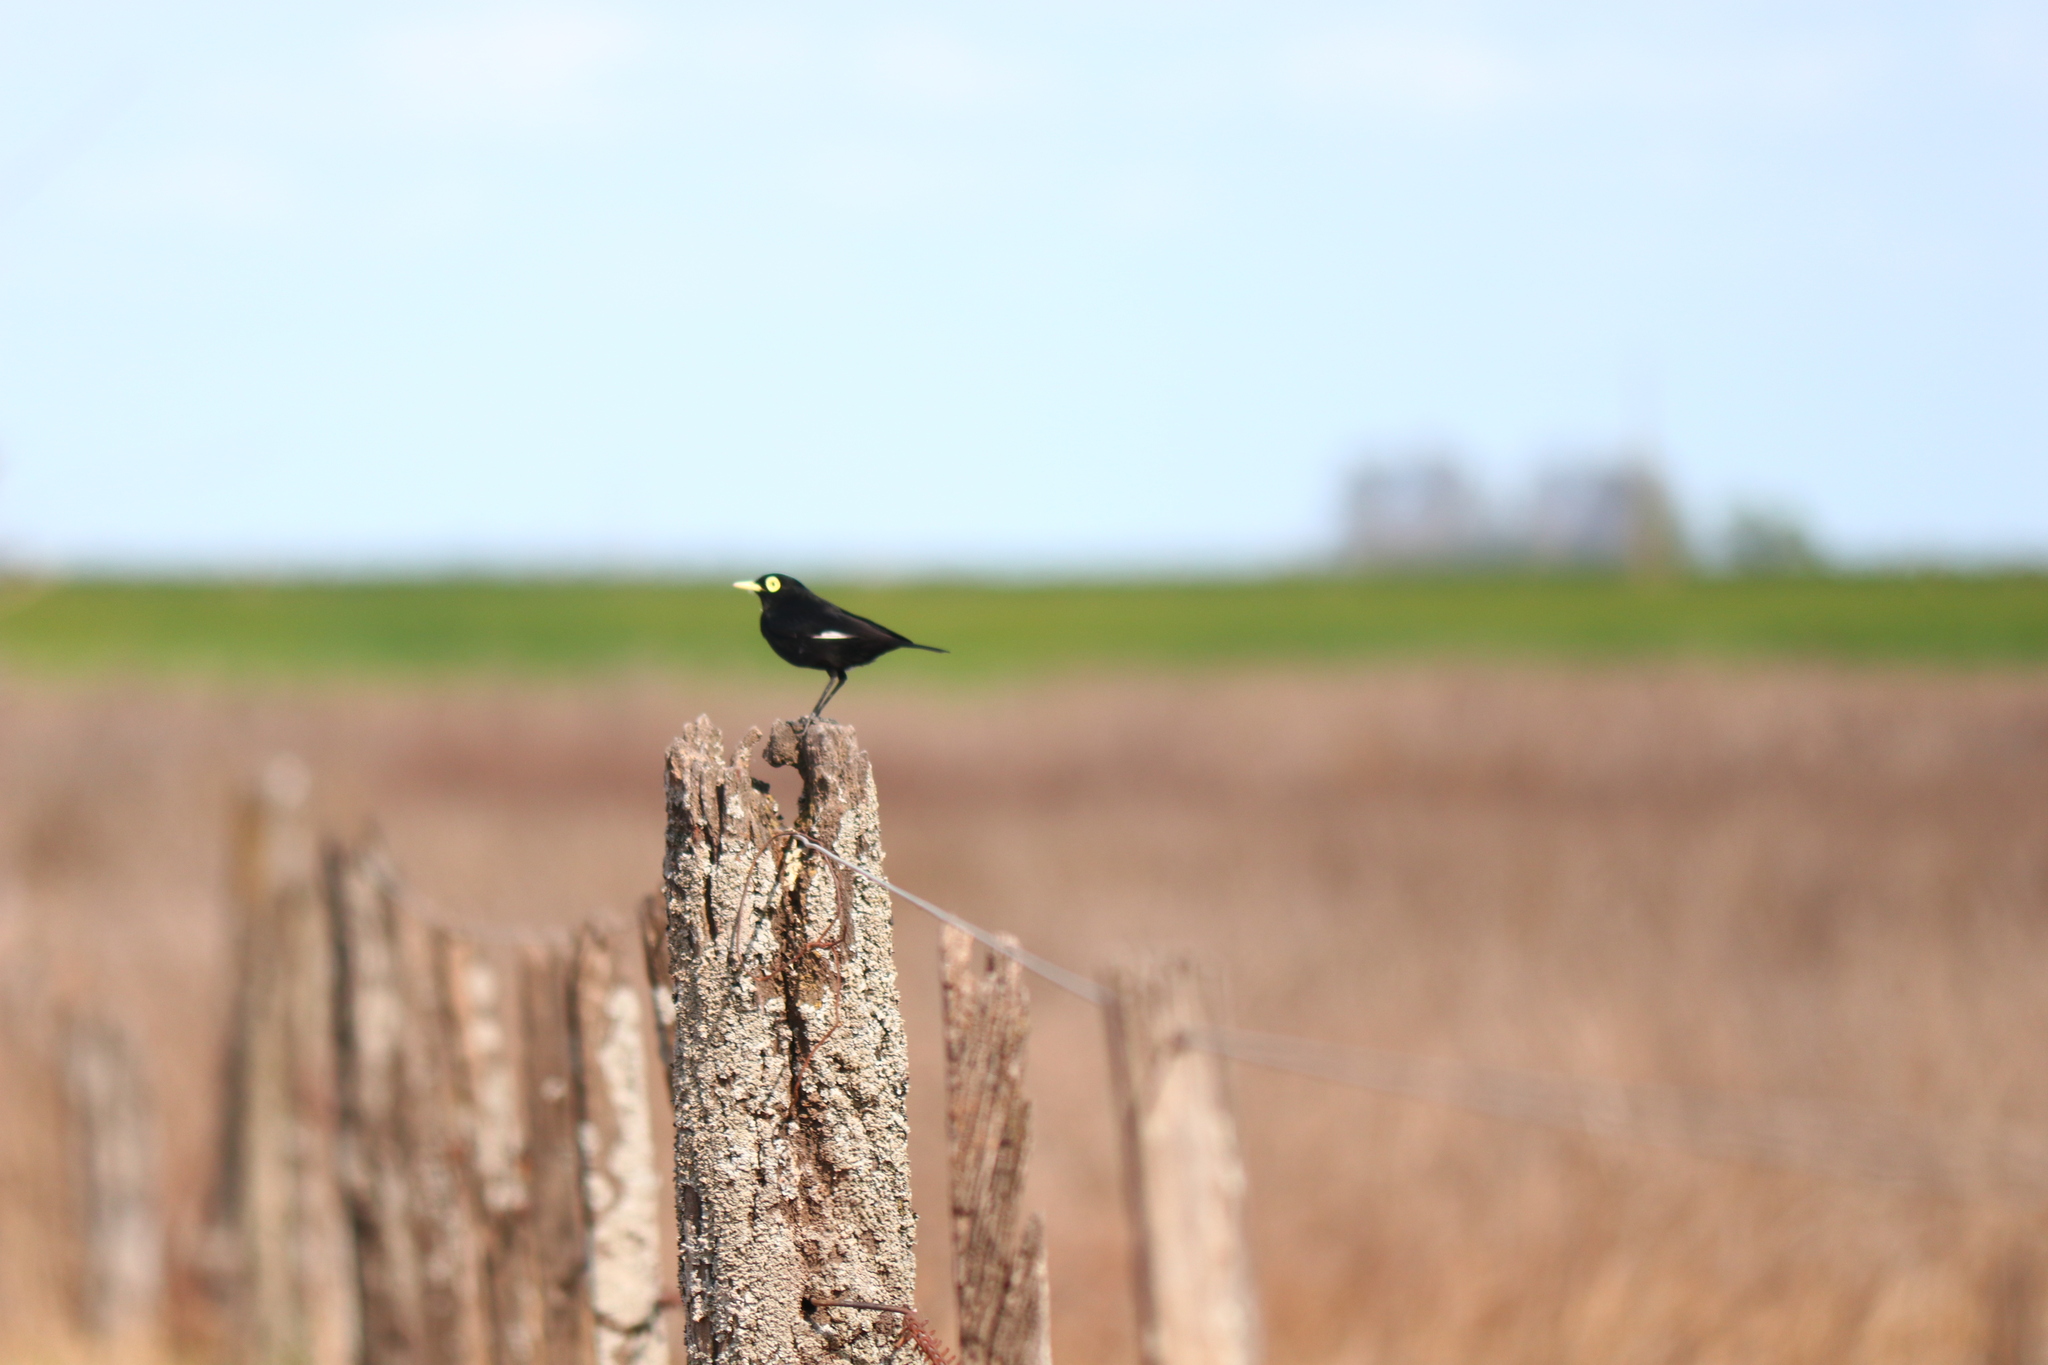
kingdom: Animalia
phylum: Chordata
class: Aves
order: Passeriformes
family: Tyrannidae
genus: Hymenops
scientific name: Hymenops perspicillatus
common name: Spectacled tyrant
